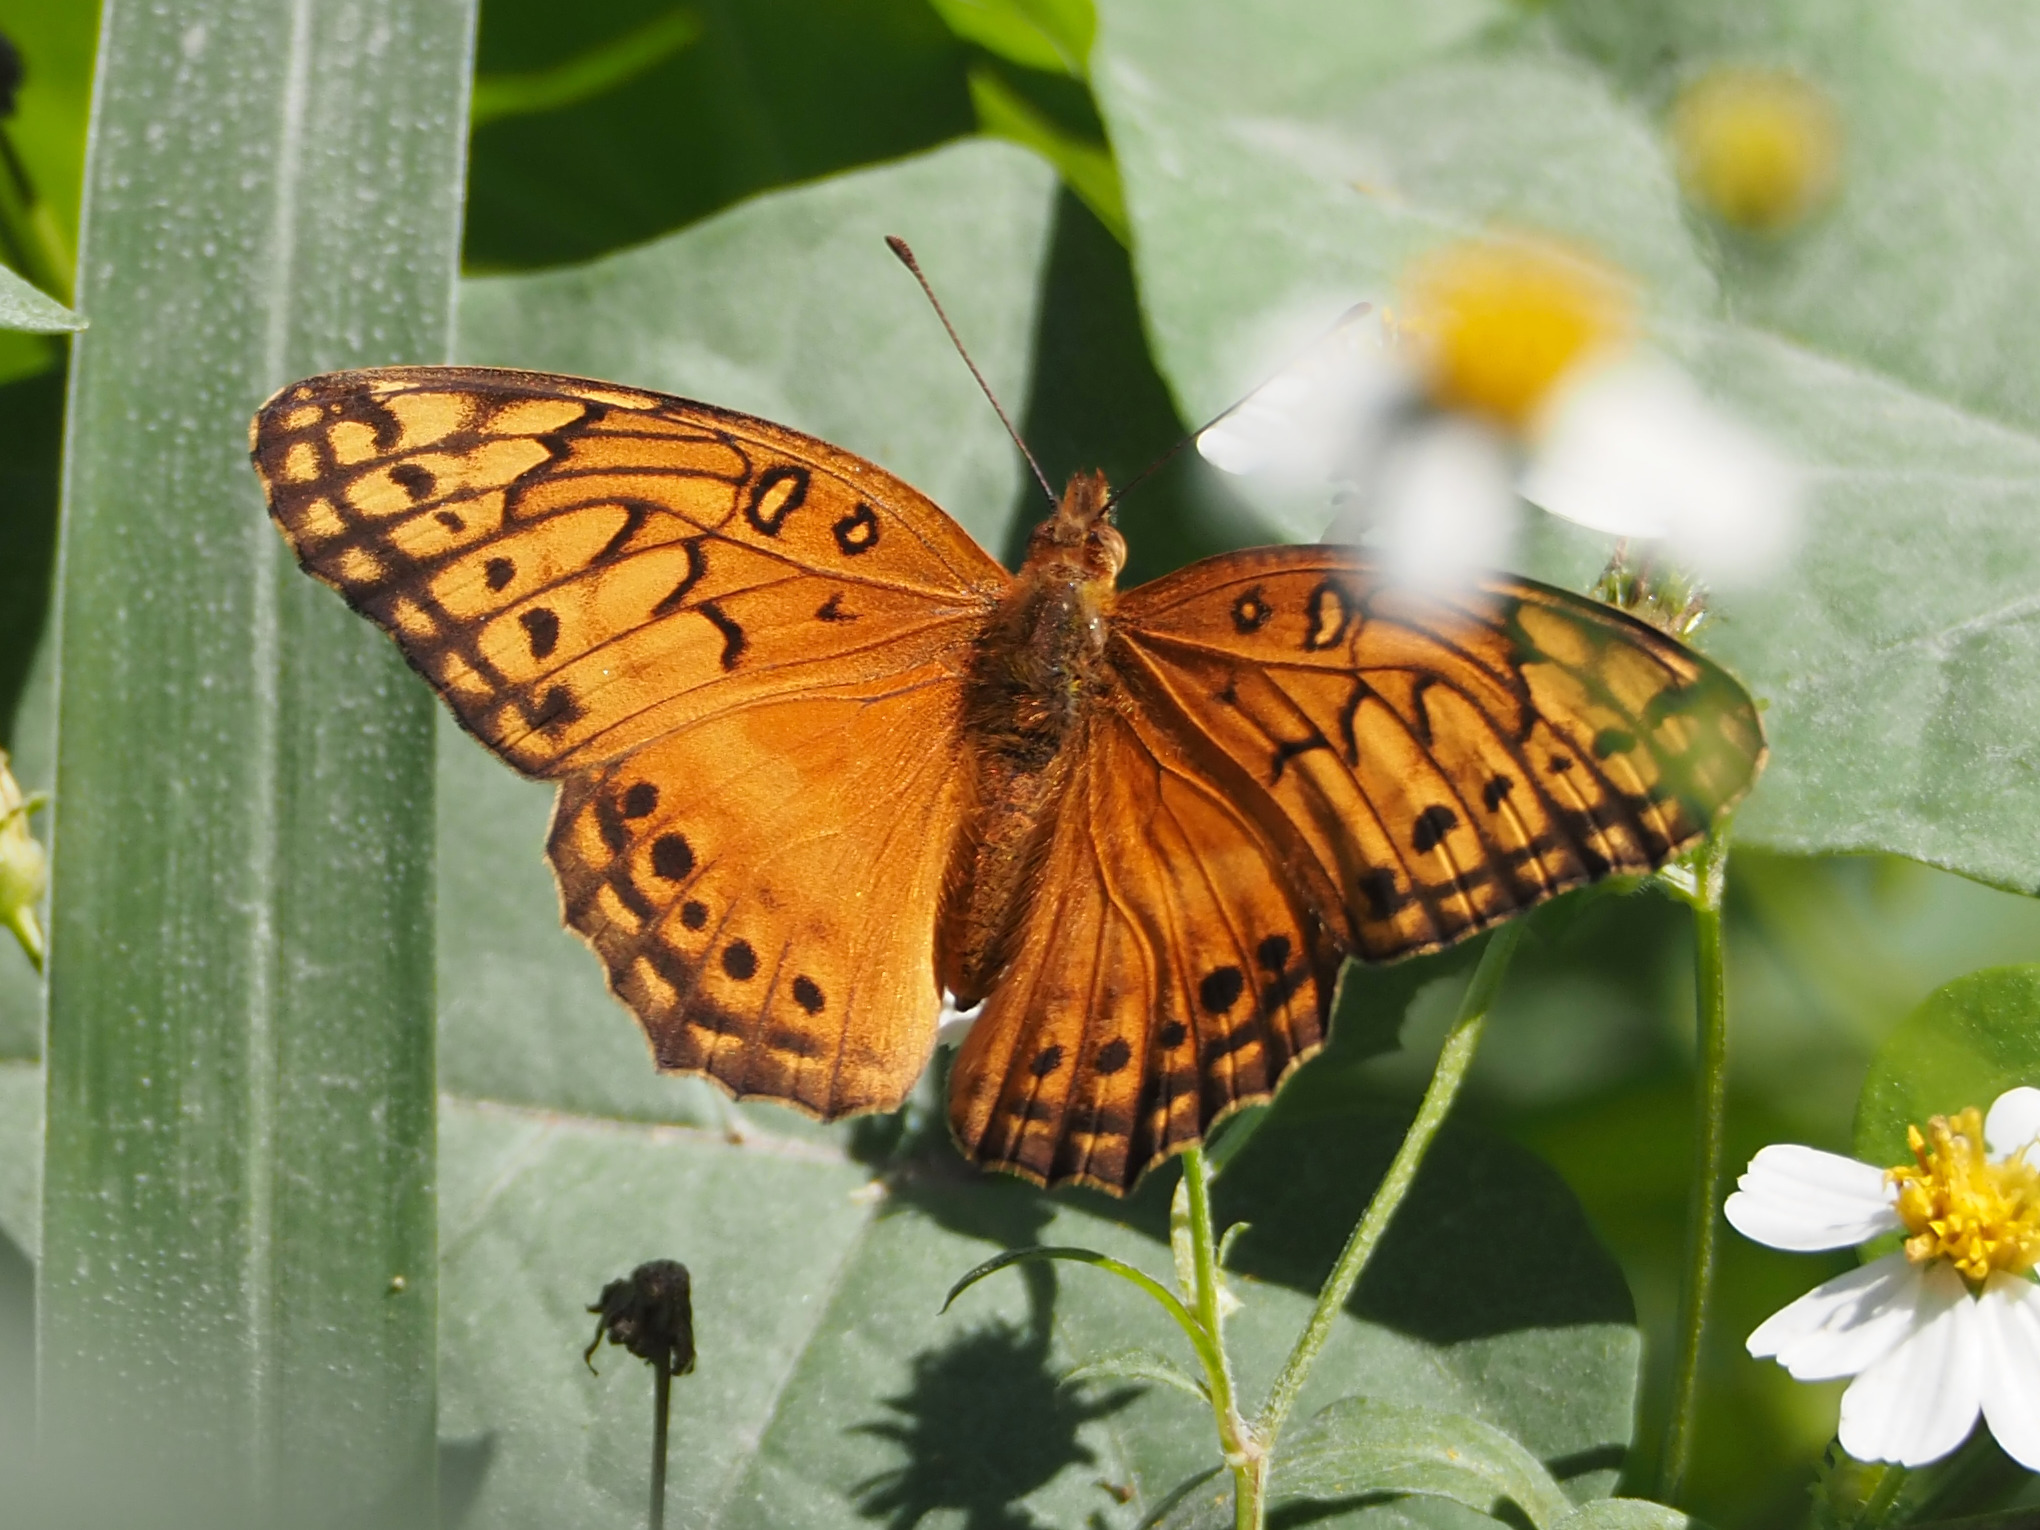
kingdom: Animalia
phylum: Arthropoda
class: Insecta
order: Lepidoptera
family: Nymphalidae
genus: Euptoieta
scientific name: Euptoieta hegesia
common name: Mexican fritillary
